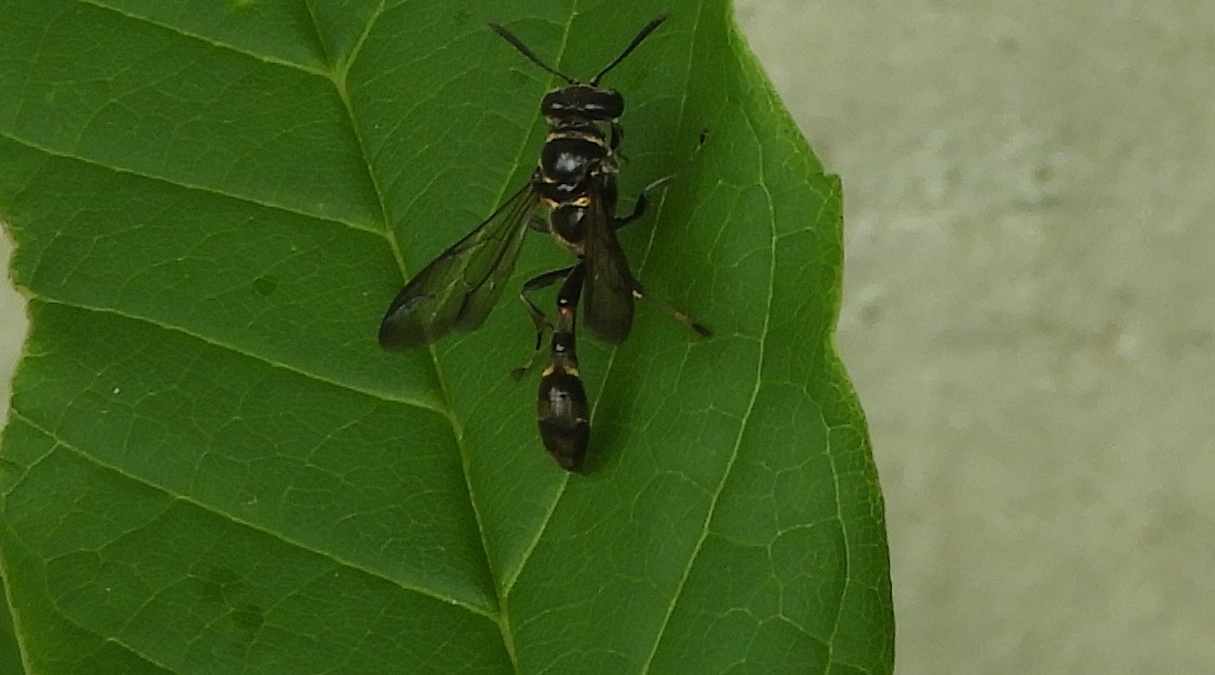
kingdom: Animalia
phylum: Arthropoda
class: Insecta
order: Hymenoptera
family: Crabronidae
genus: Trypoxylon
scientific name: Trypoxylon
